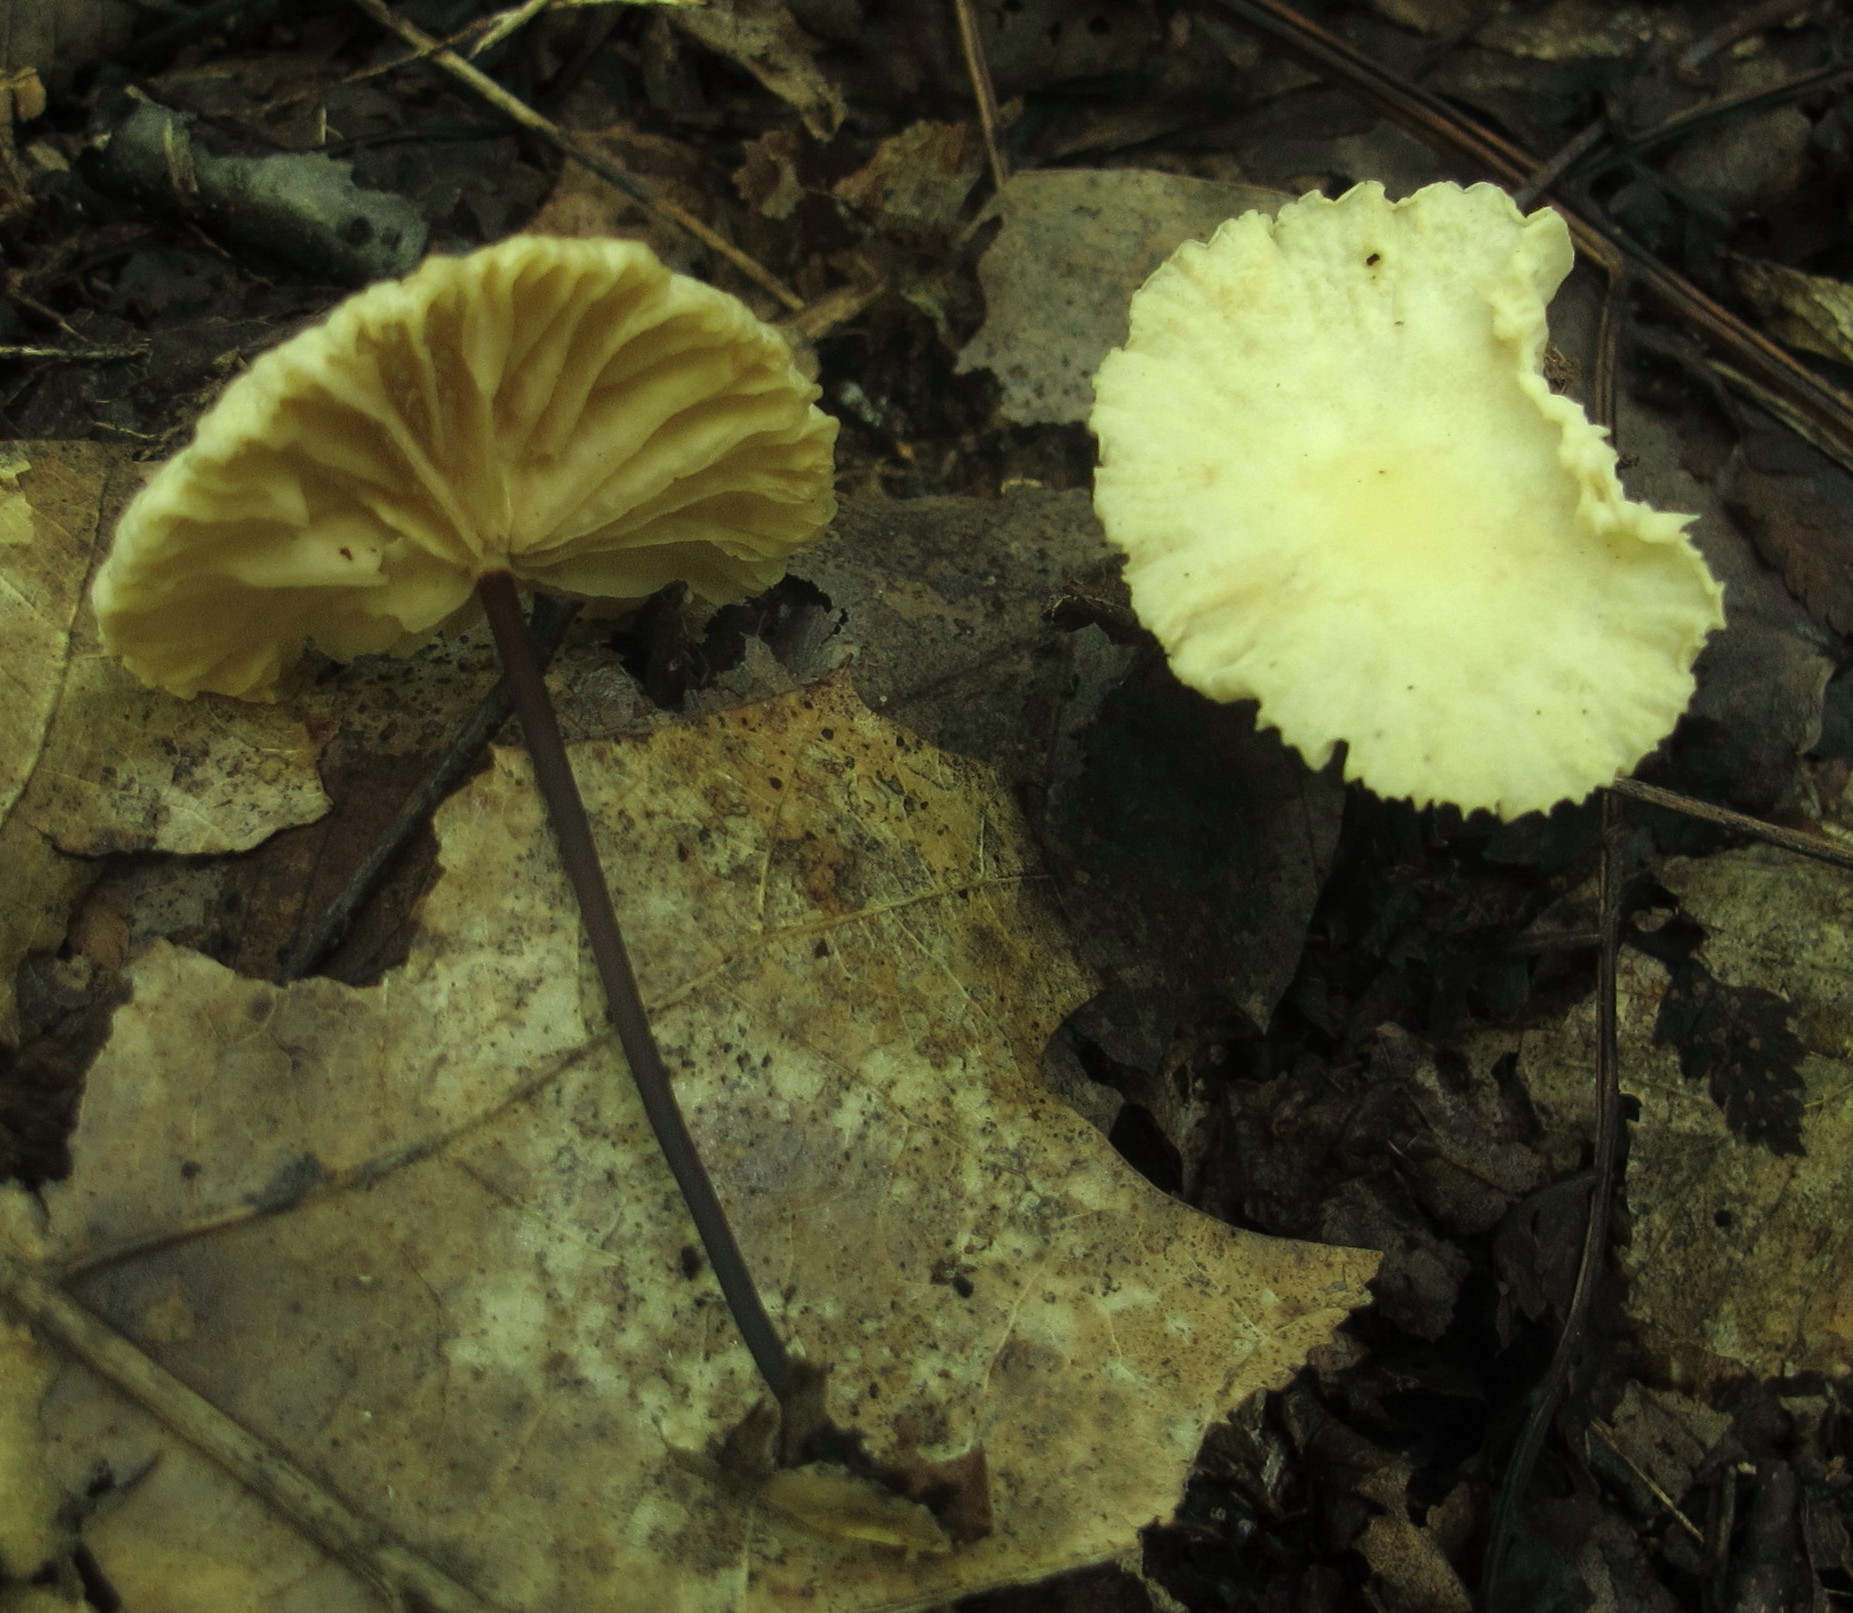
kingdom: Fungi
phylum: Basidiomycota
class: Agaricomycetes
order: Agaricales
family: Marasmiaceae
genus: Marasmius
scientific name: Marasmius delectans
